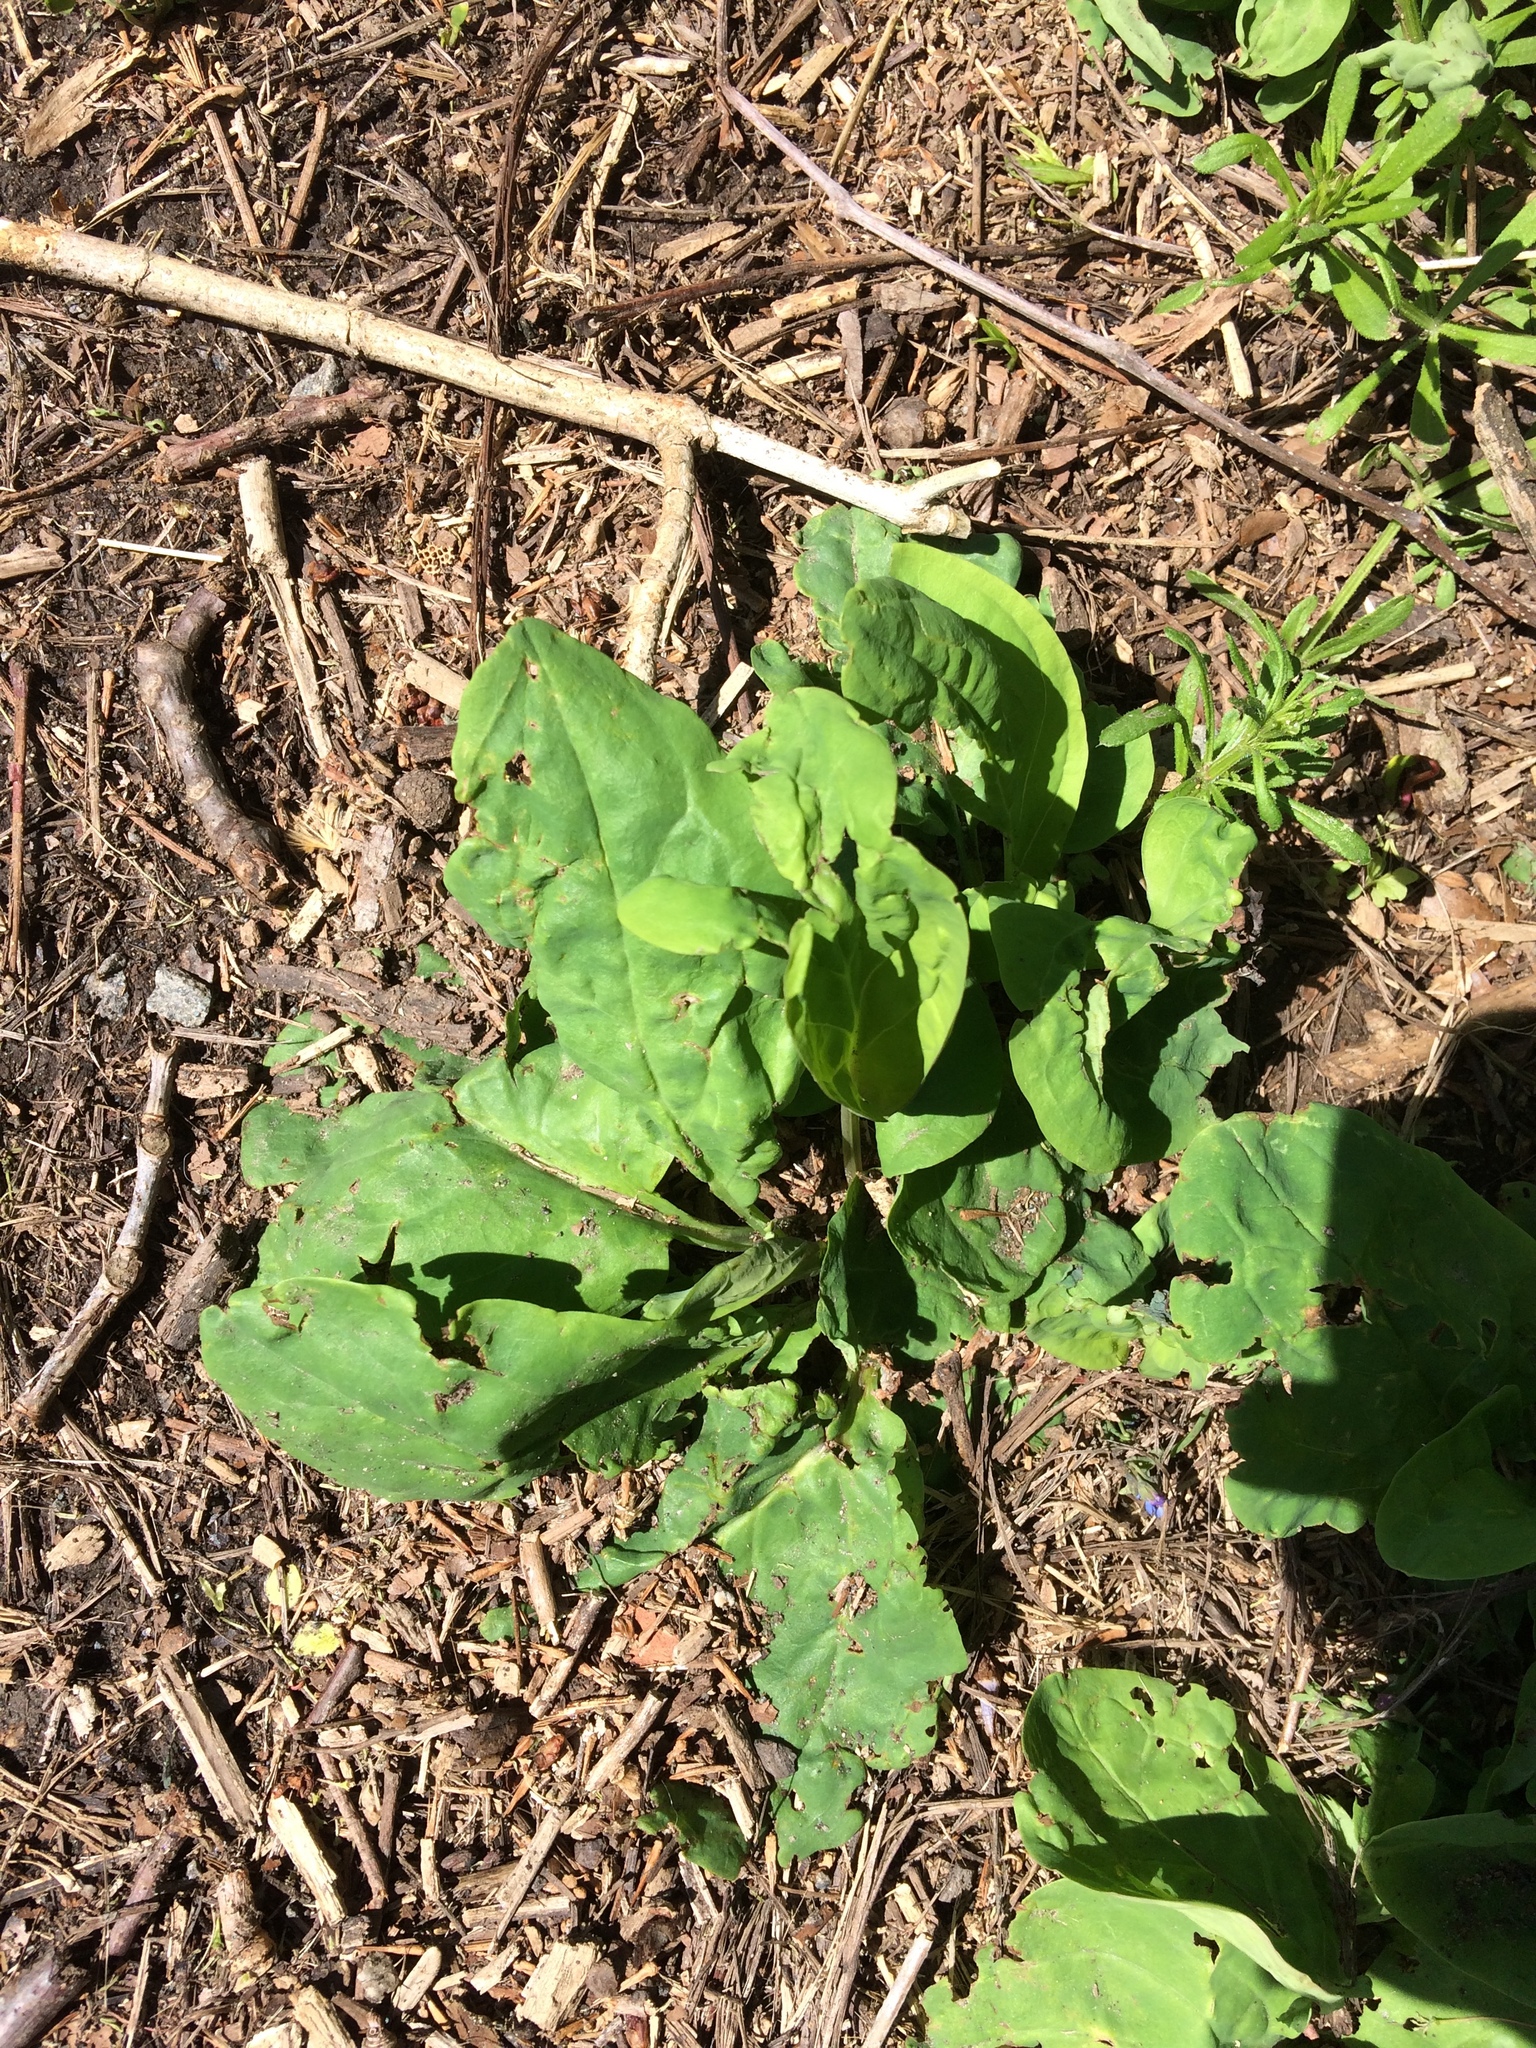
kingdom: Plantae
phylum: Tracheophyta
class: Magnoliopsida
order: Boraginales
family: Boraginaceae
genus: Mertensia
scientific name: Mertensia virginica
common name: Virginia bluebells
